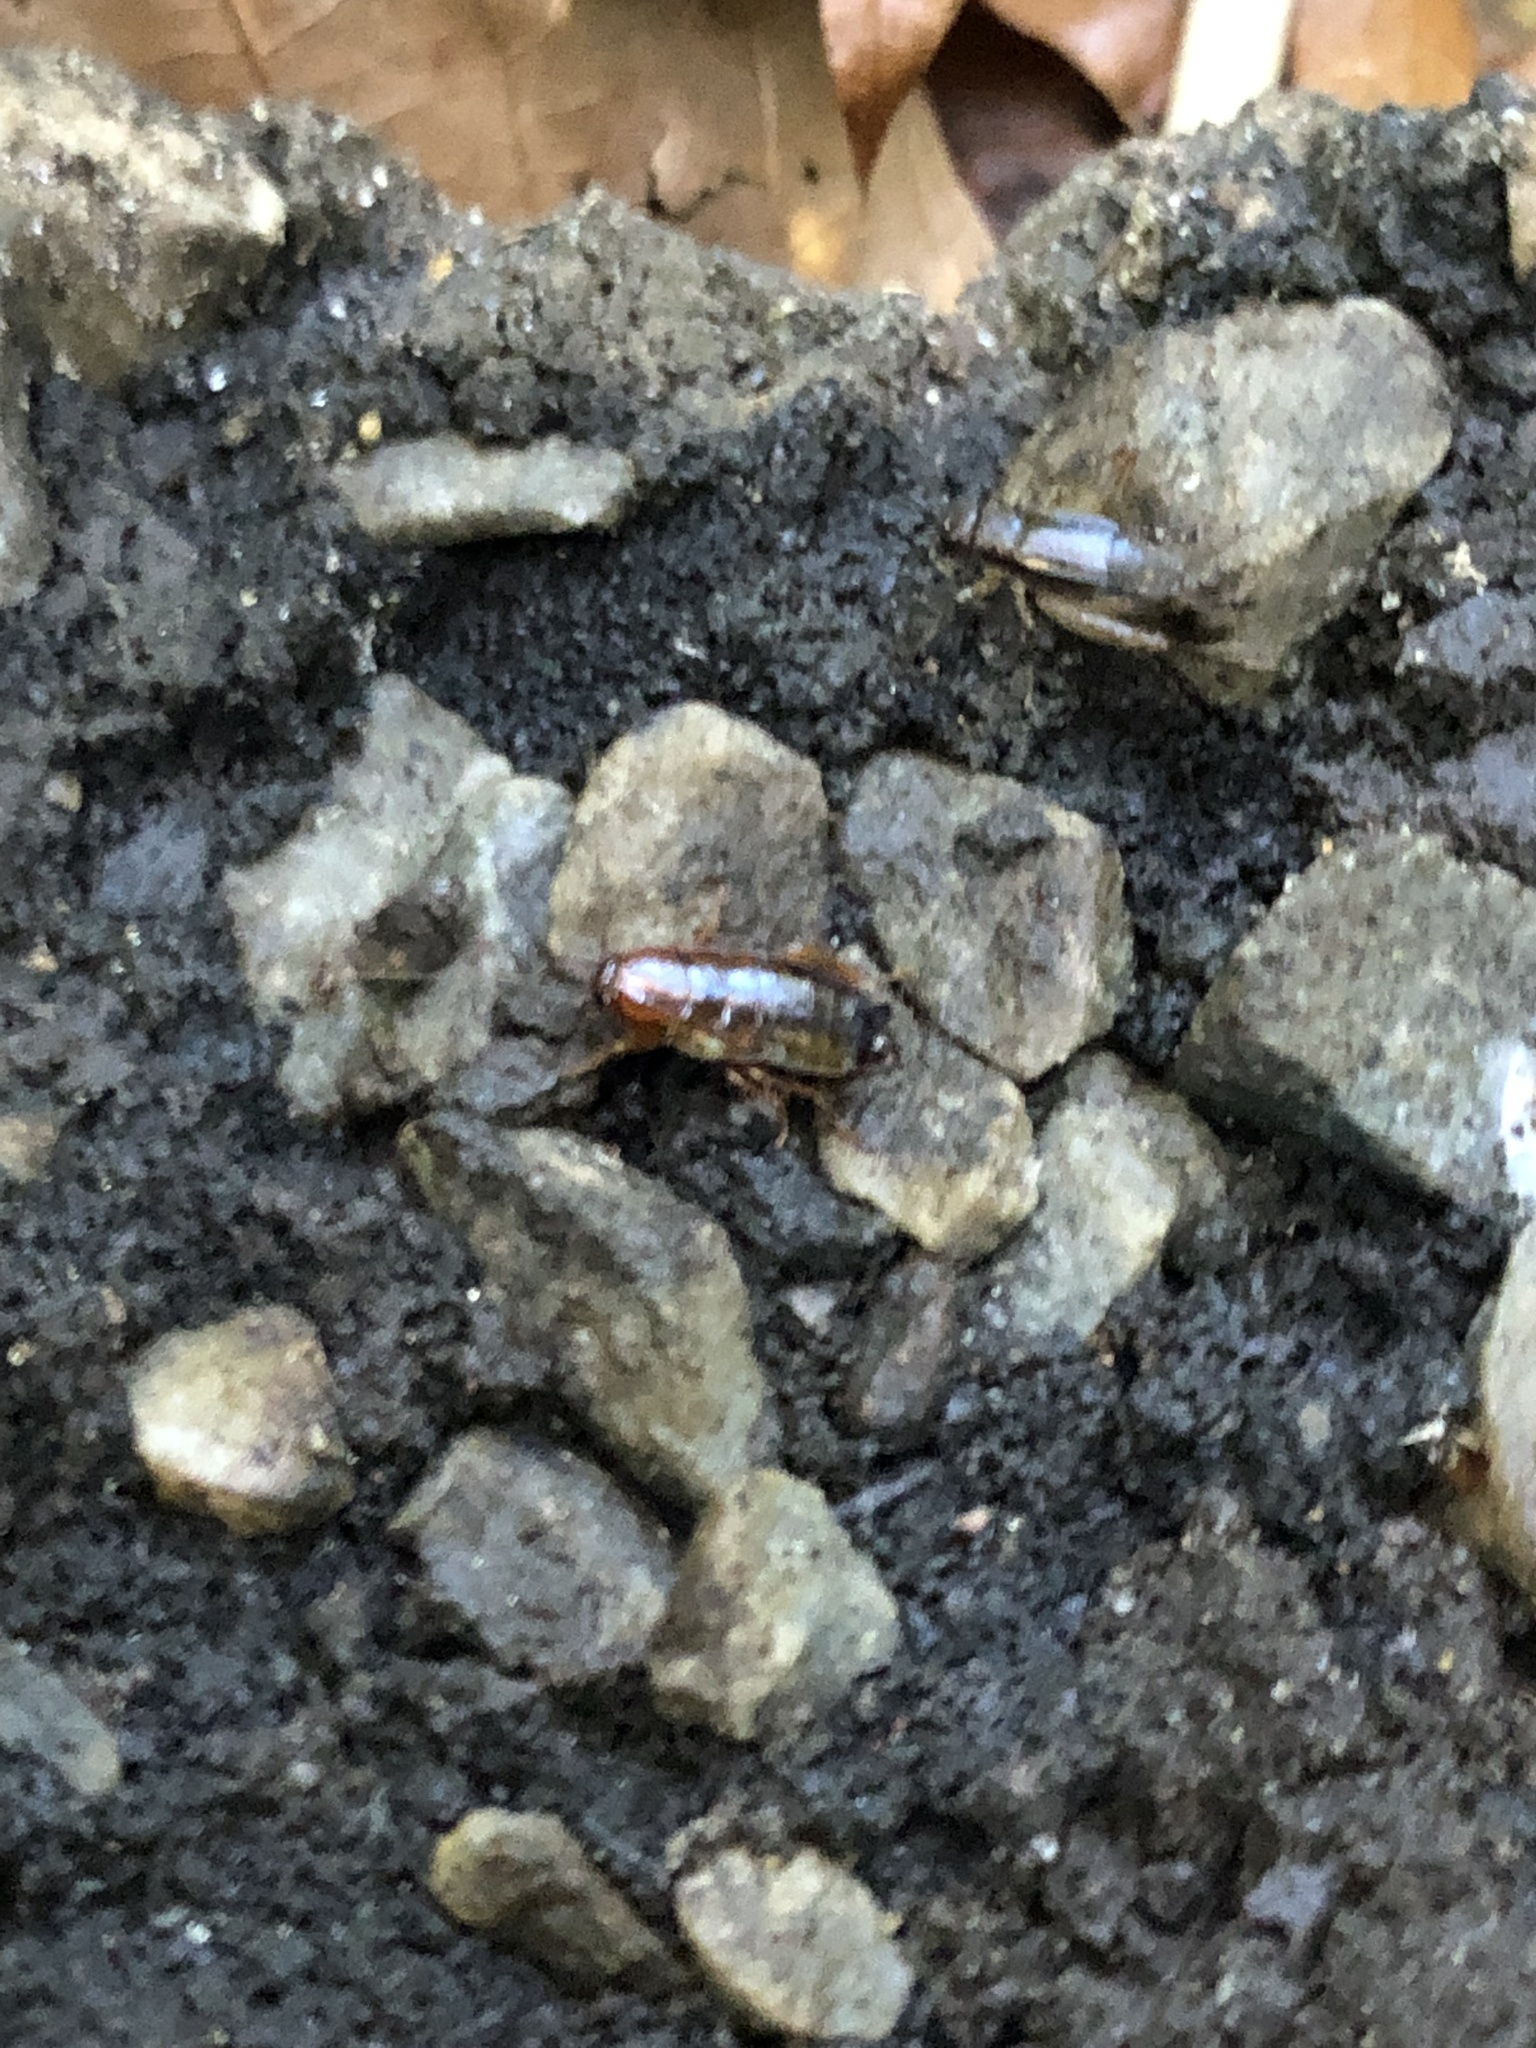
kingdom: Animalia
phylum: Arthropoda
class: Insecta
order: Orthoptera
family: Trigonidiidae
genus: Eunemobius
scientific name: Eunemobius carolinus
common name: Carolina ground cricket
